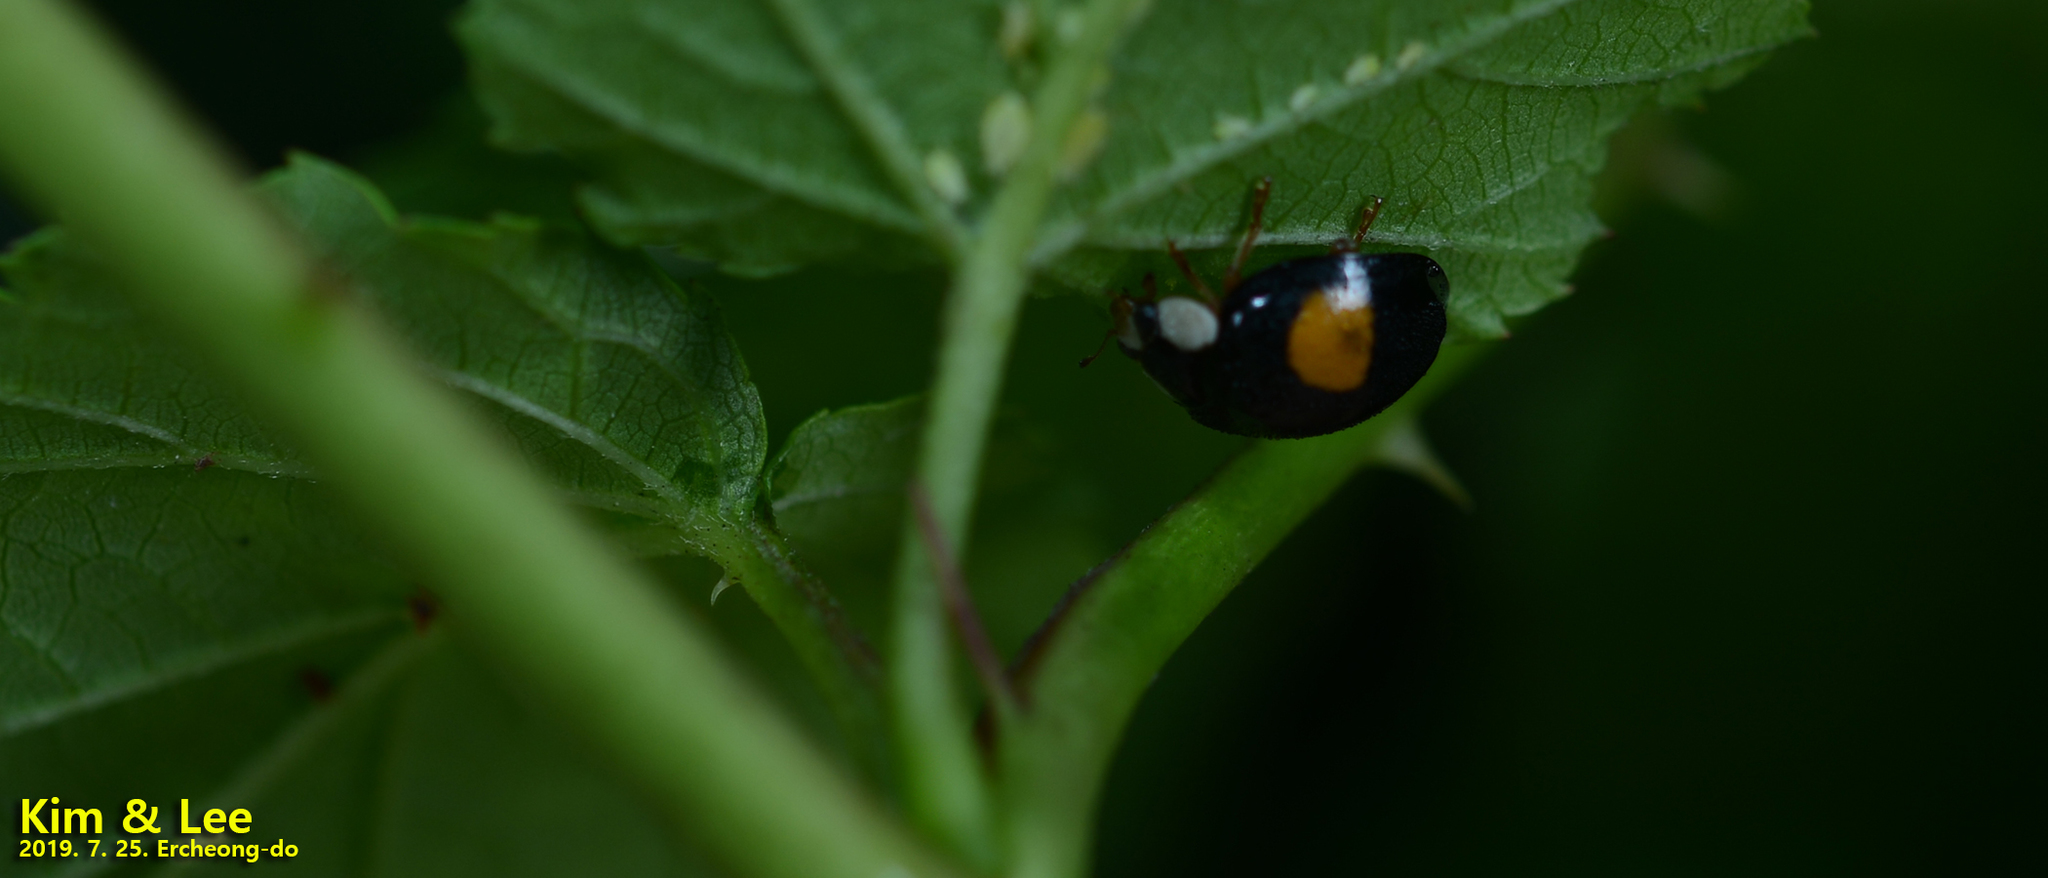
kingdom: Animalia
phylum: Arthropoda
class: Insecta
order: Coleoptera
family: Coccinellidae
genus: Harmonia
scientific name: Harmonia axyridis
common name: Harlequin ladybird
